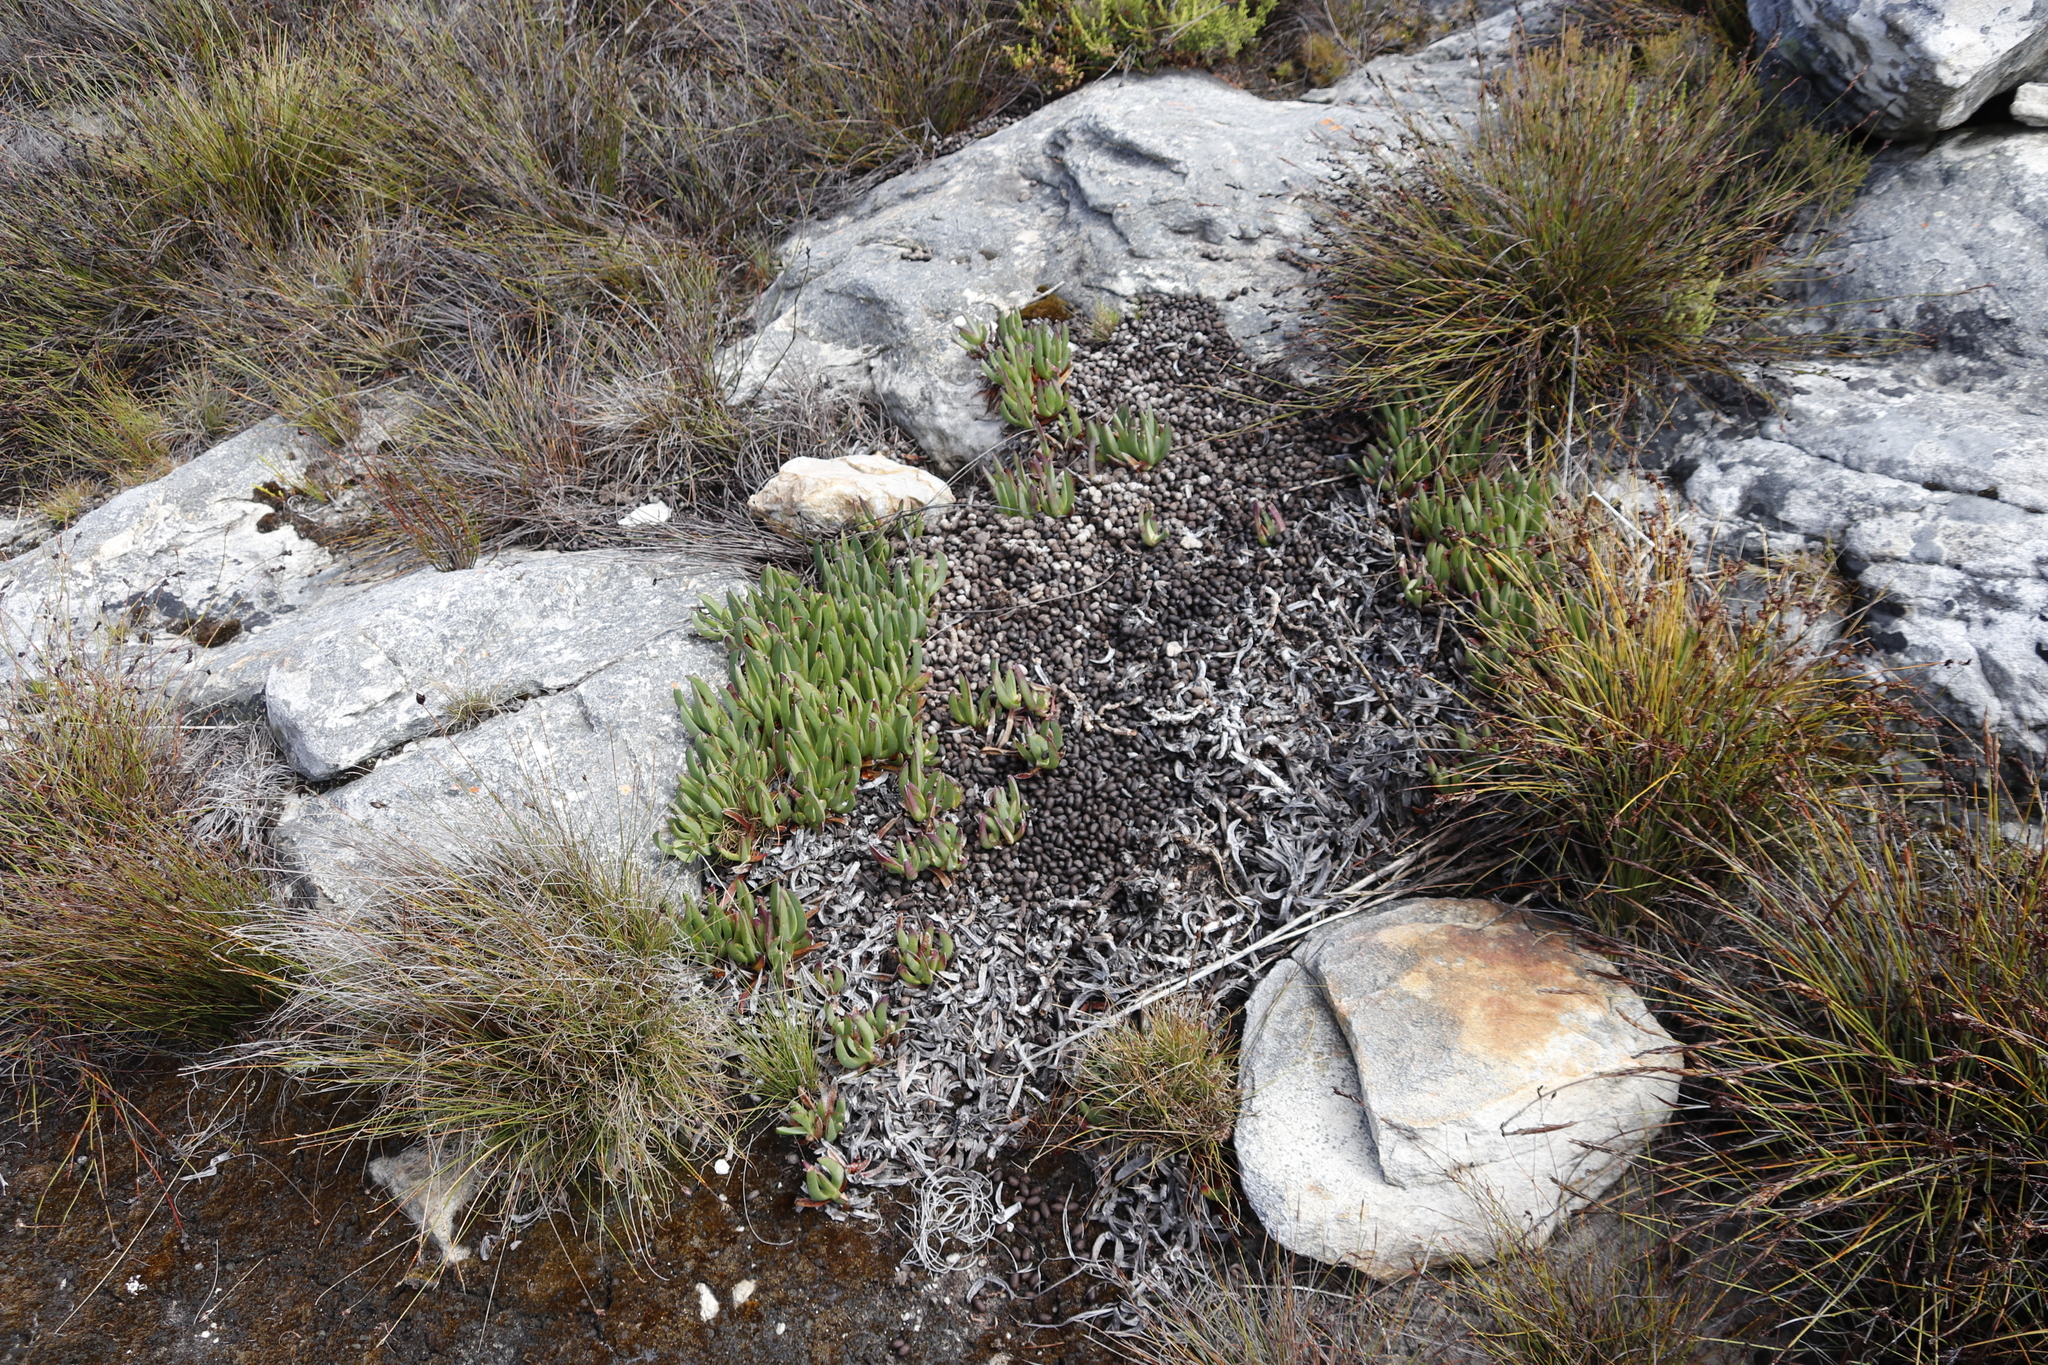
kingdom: Animalia
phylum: Chordata
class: Mammalia
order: Artiodactyla
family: Bovidae
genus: Oreotragus
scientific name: Oreotragus oreotragus
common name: Klipspringer
